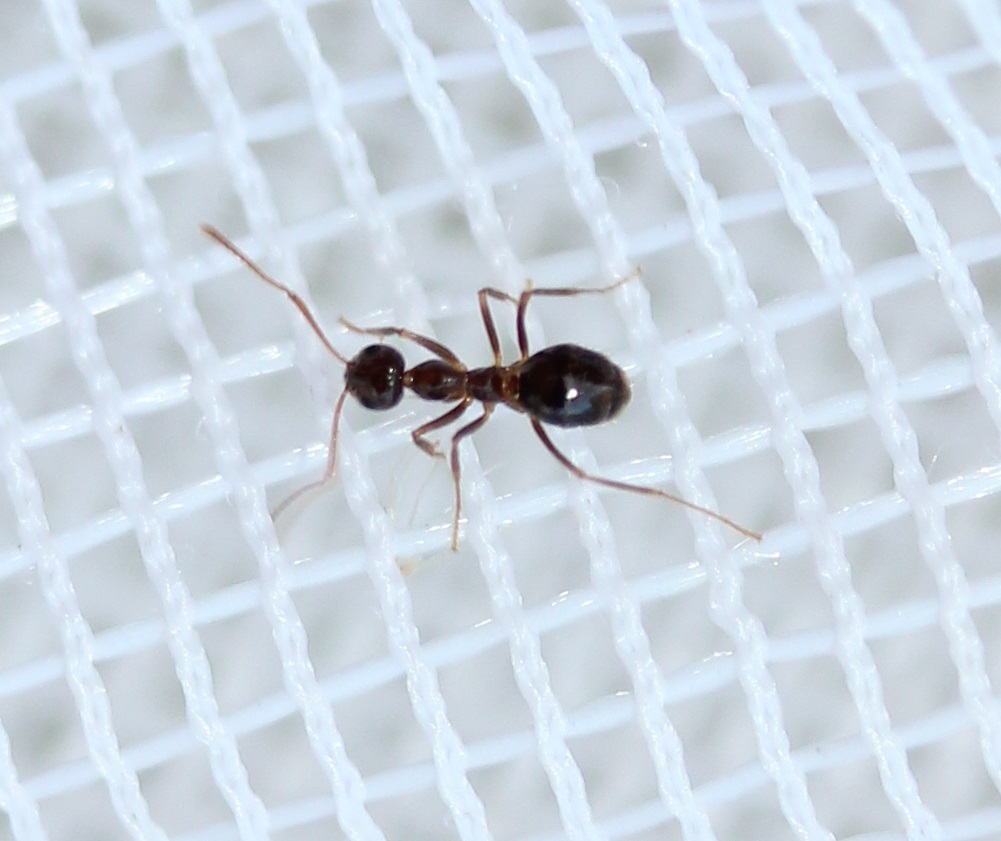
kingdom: Animalia
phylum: Arthropoda
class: Insecta
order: Hymenoptera
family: Formicidae
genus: Prenolepis
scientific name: Prenolepis imparis
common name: Small honey ant
